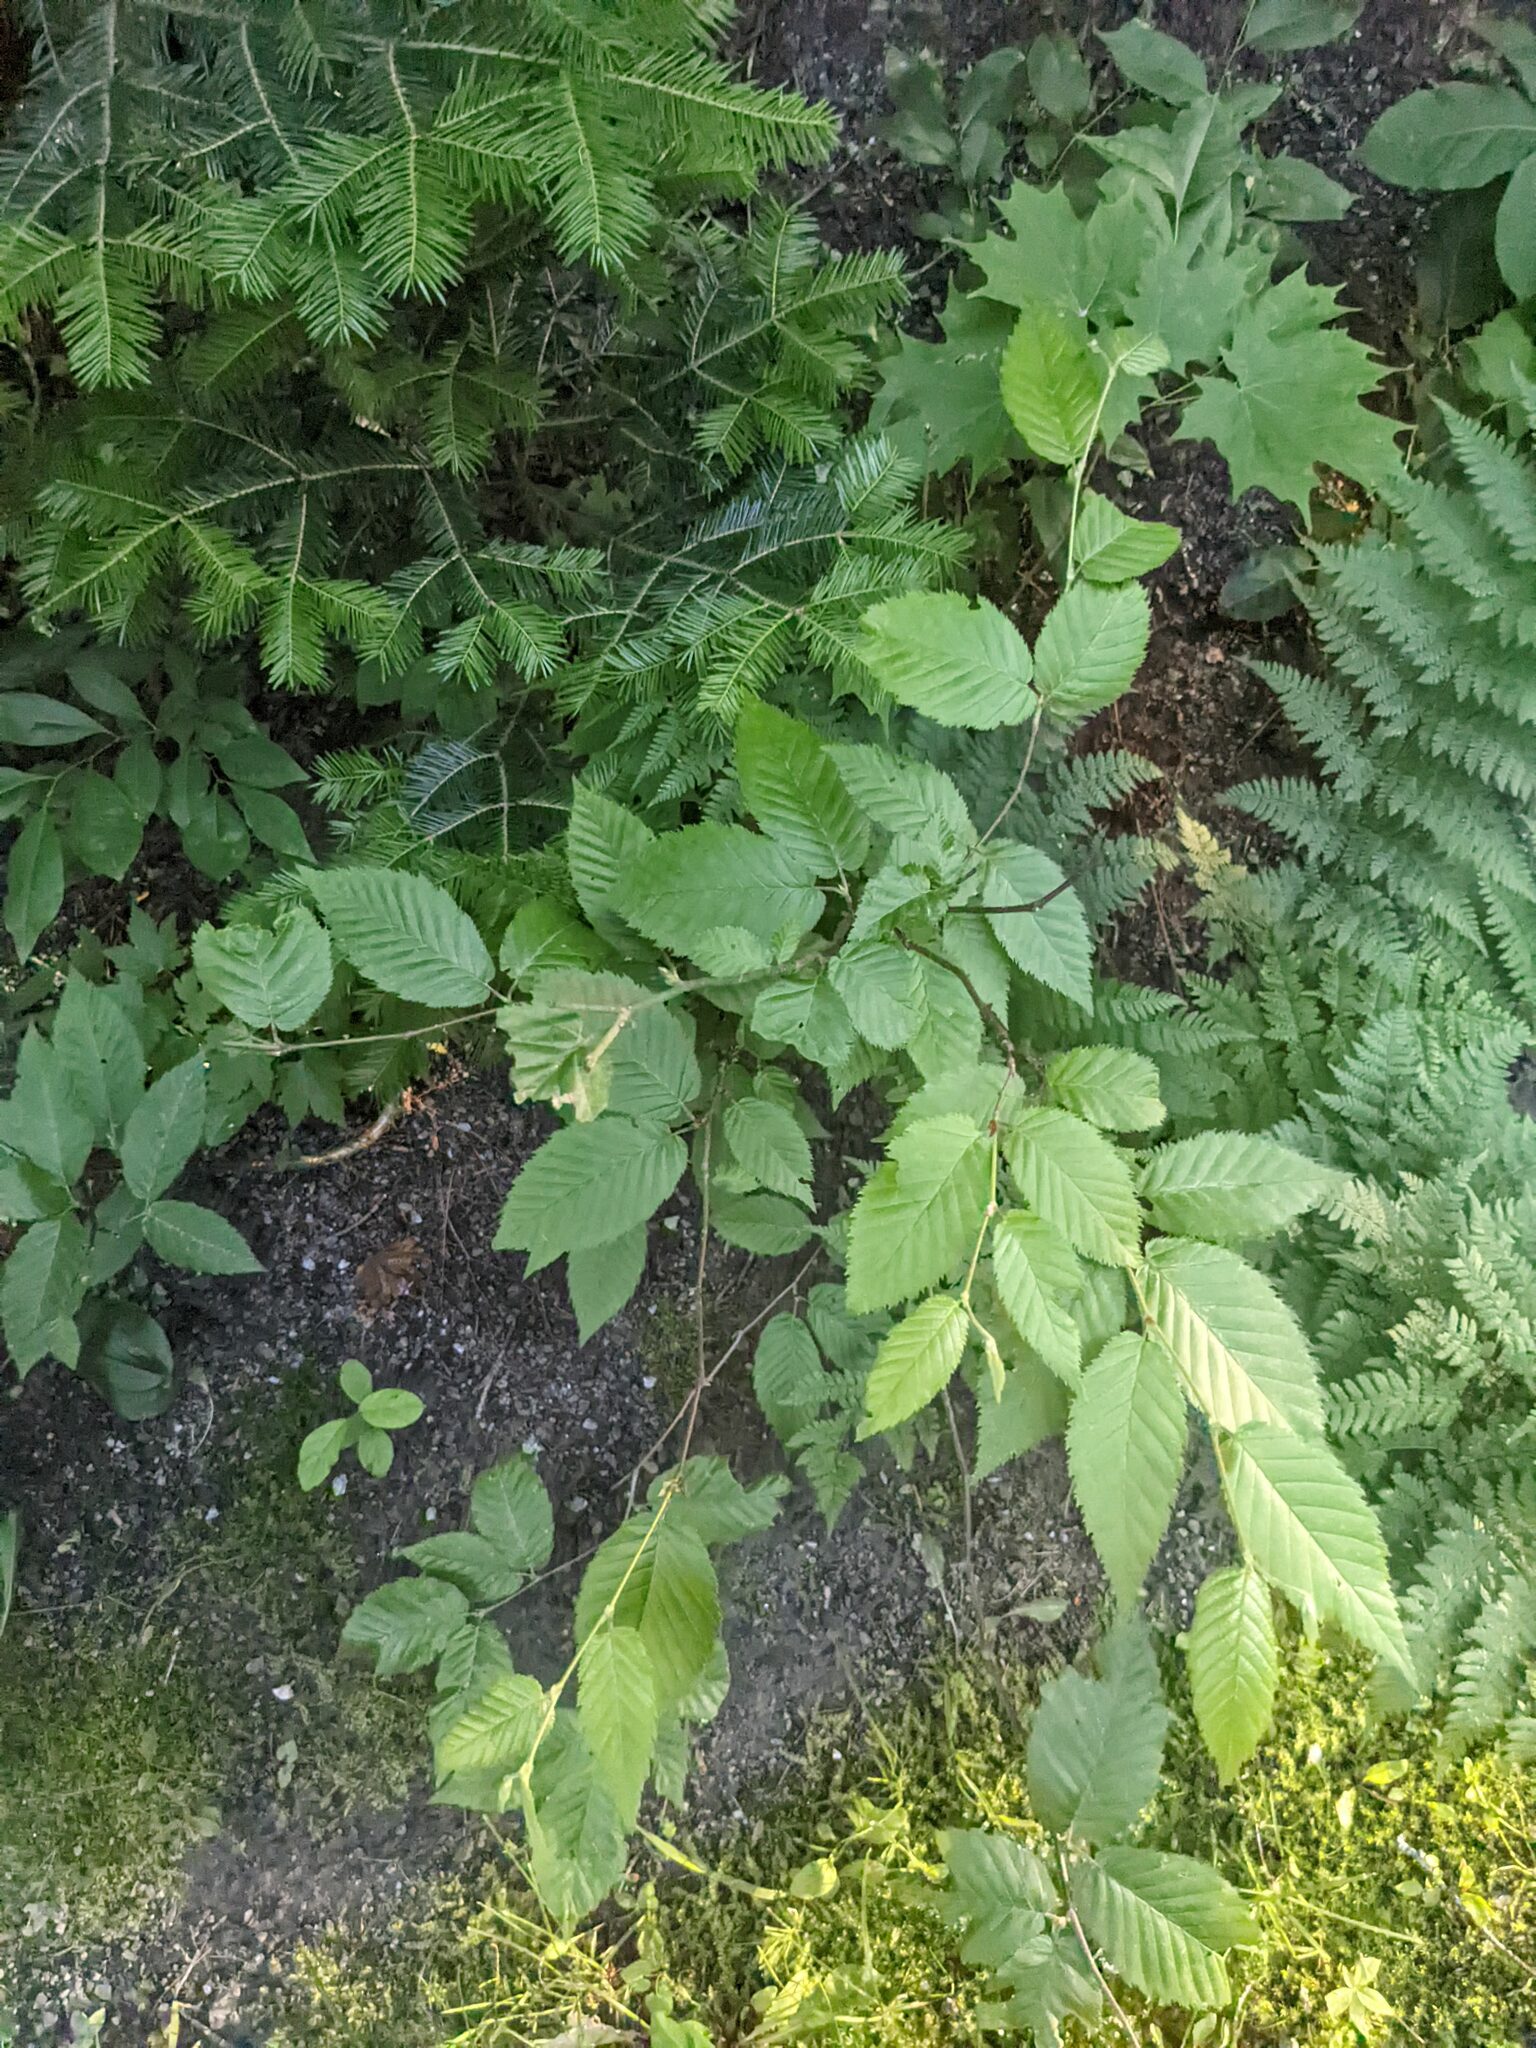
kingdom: Plantae
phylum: Tracheophyta
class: Magnoliopsida
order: Fagales
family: Fagaceae
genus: Fagus
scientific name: Fagus grandifolia
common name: American beech
